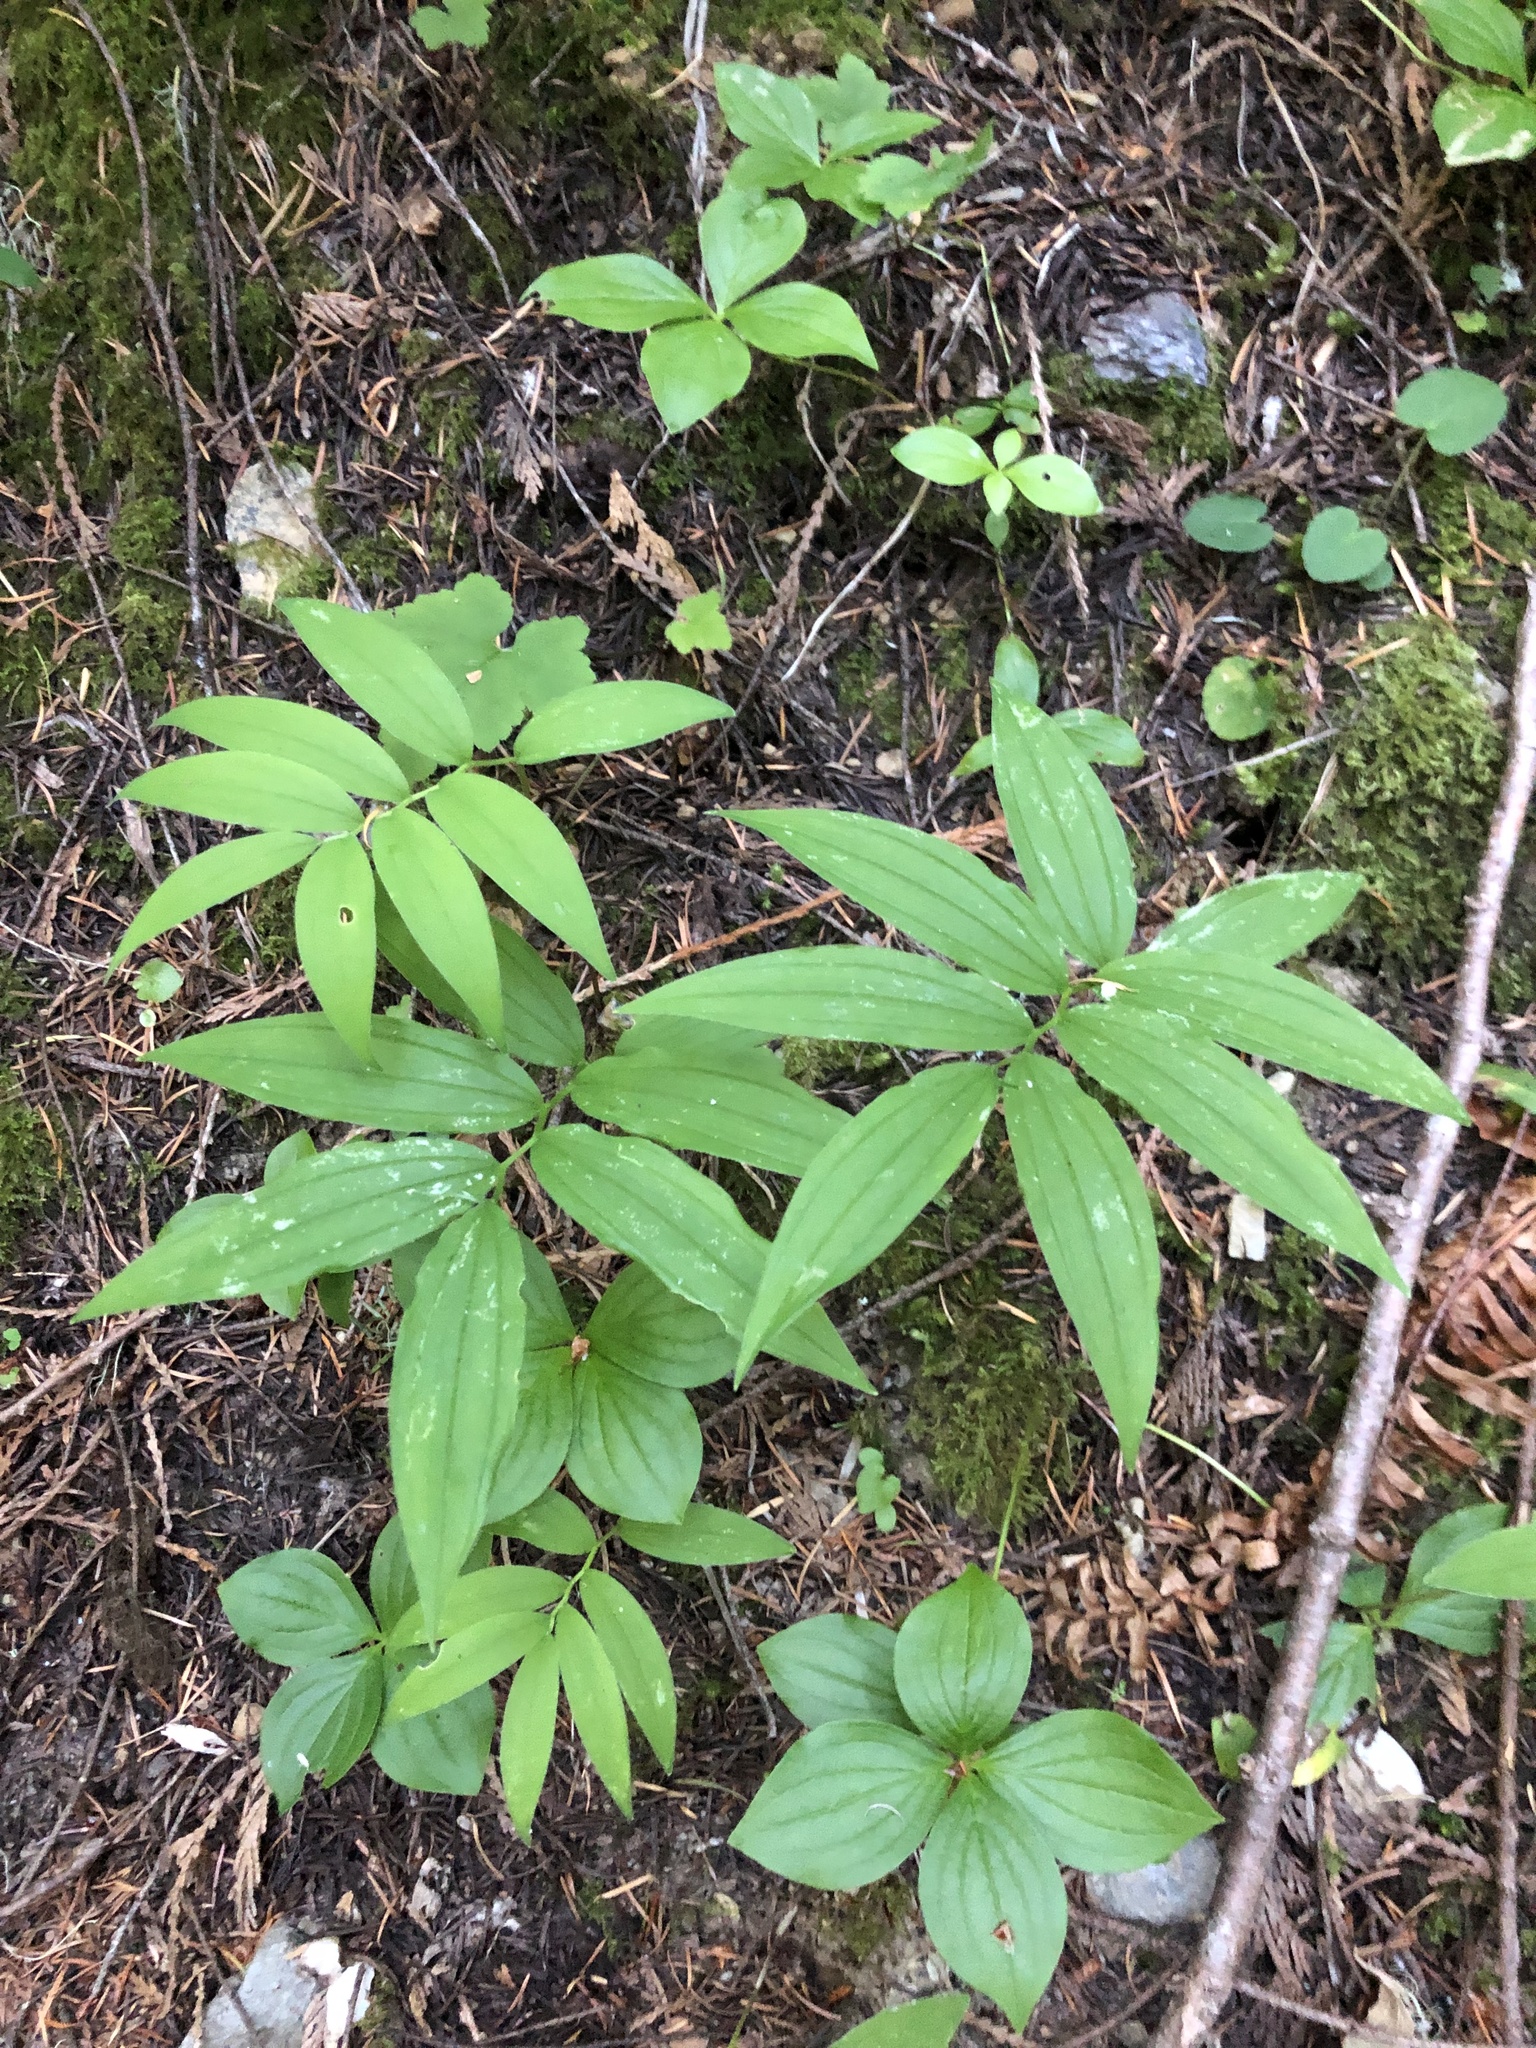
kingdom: Plantae
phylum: Tracheophyta
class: Liliopsida
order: Asparagales
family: Asparagaceae
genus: Maianthemum
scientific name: Maianthemum stellatum
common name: Little false solomon's seal
